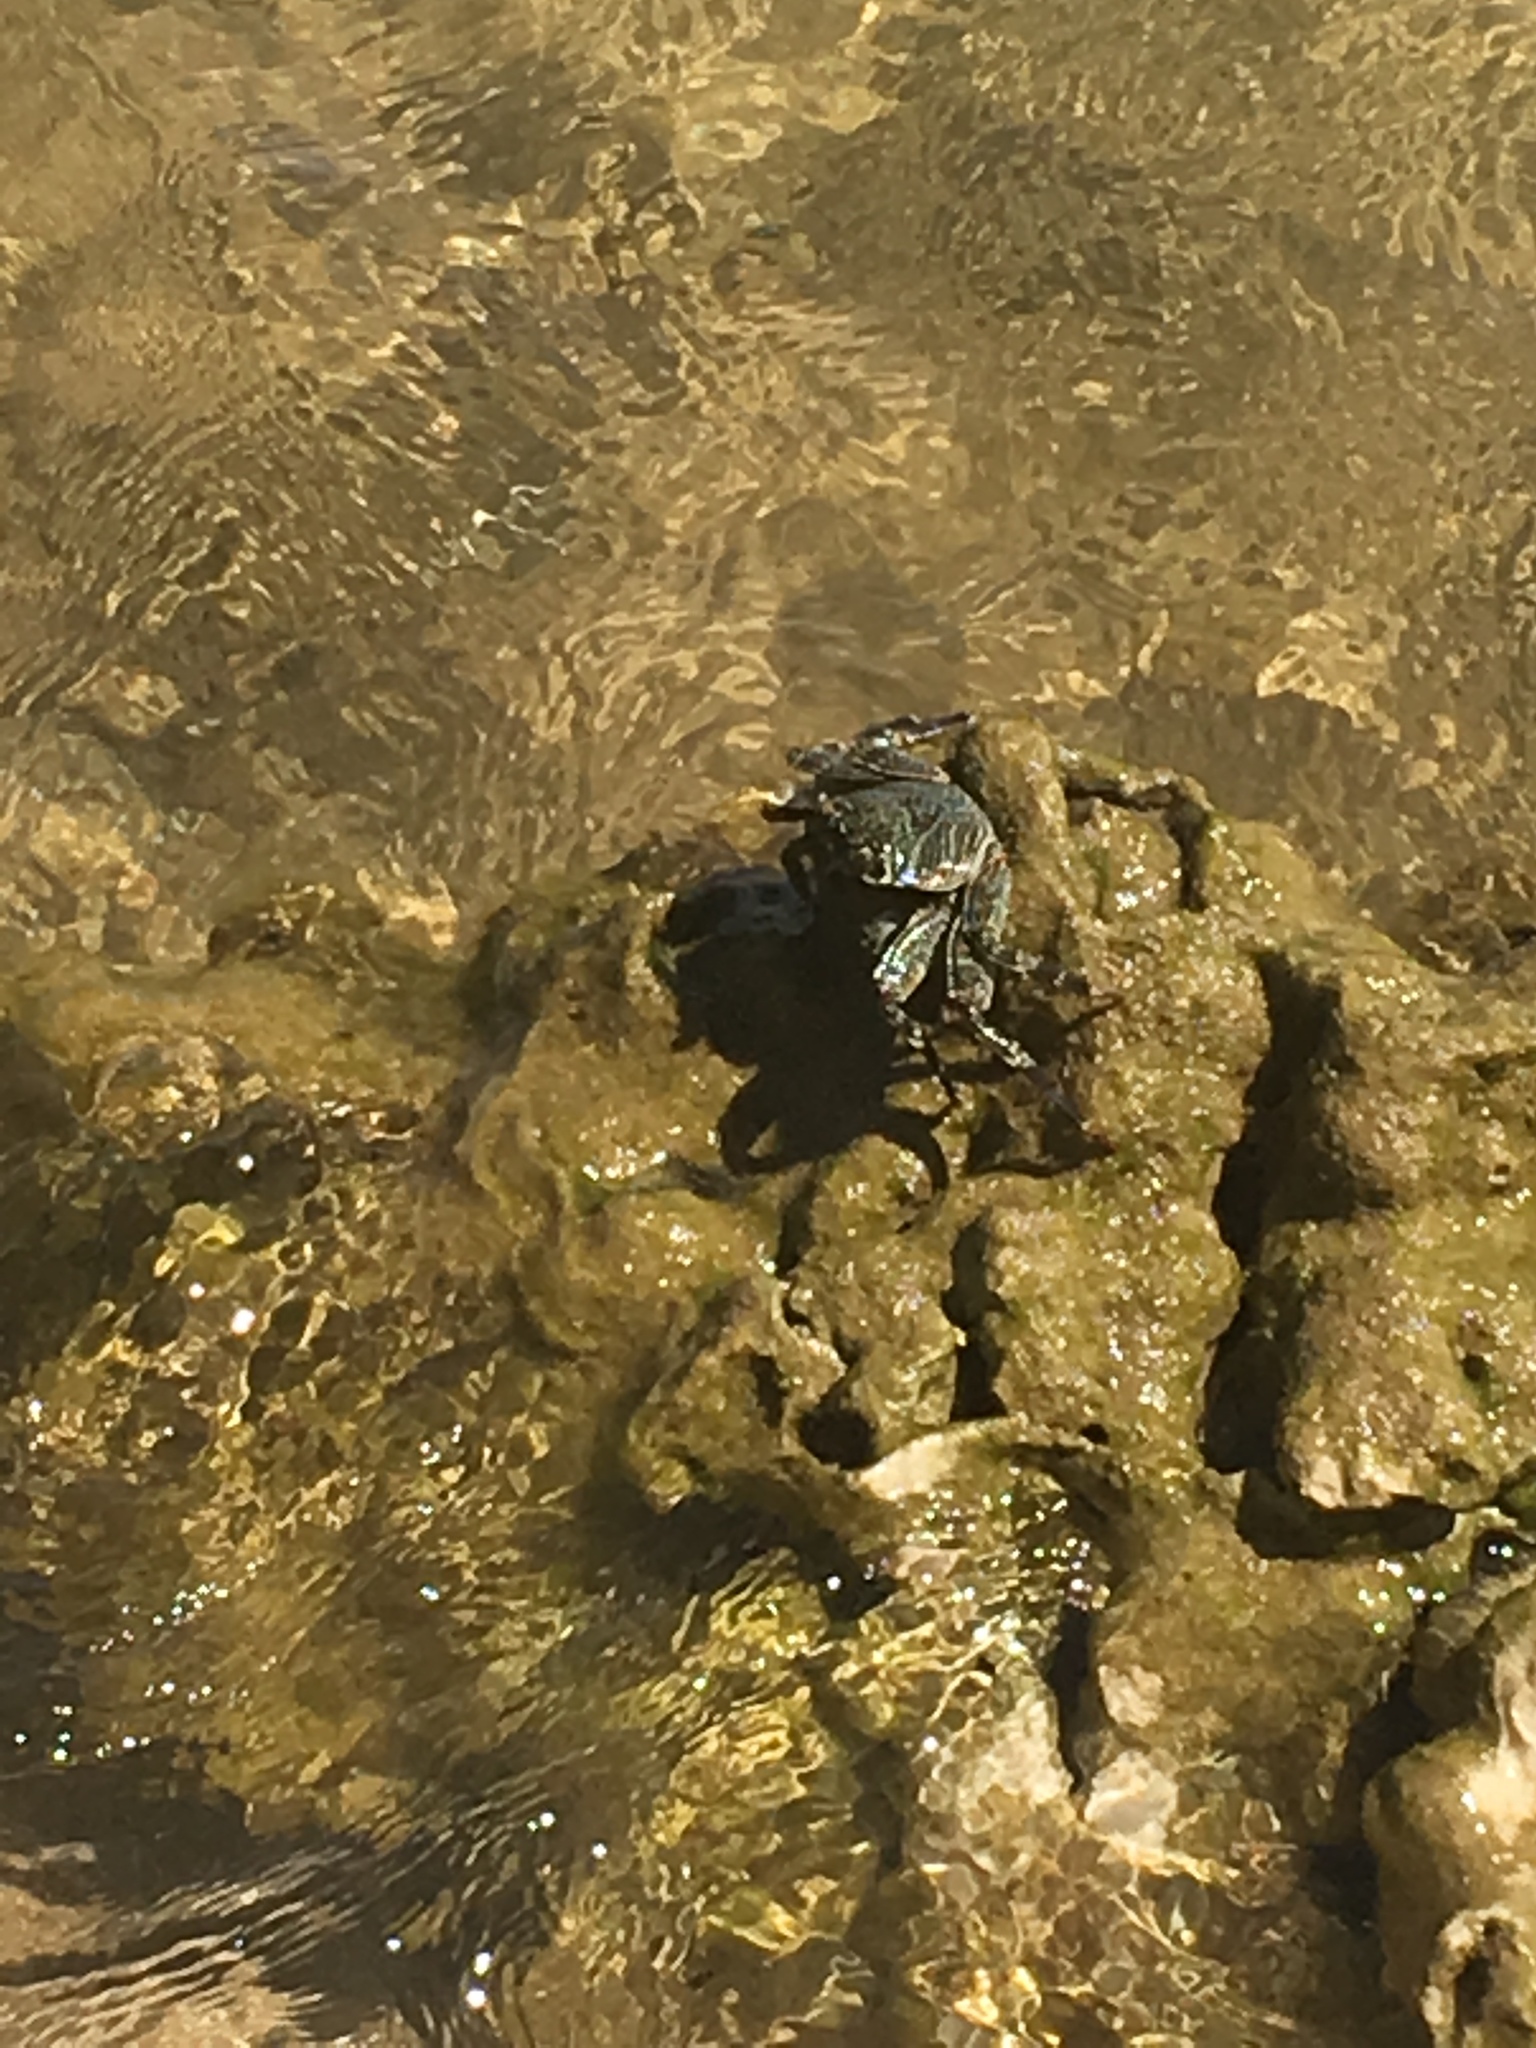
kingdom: Animalia
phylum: Arthropoda
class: Malacostraca
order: Decapoda
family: Grapsidae
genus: Grapsus
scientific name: Grapsus tenuicrustatus
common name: Natal lightfoot crab
